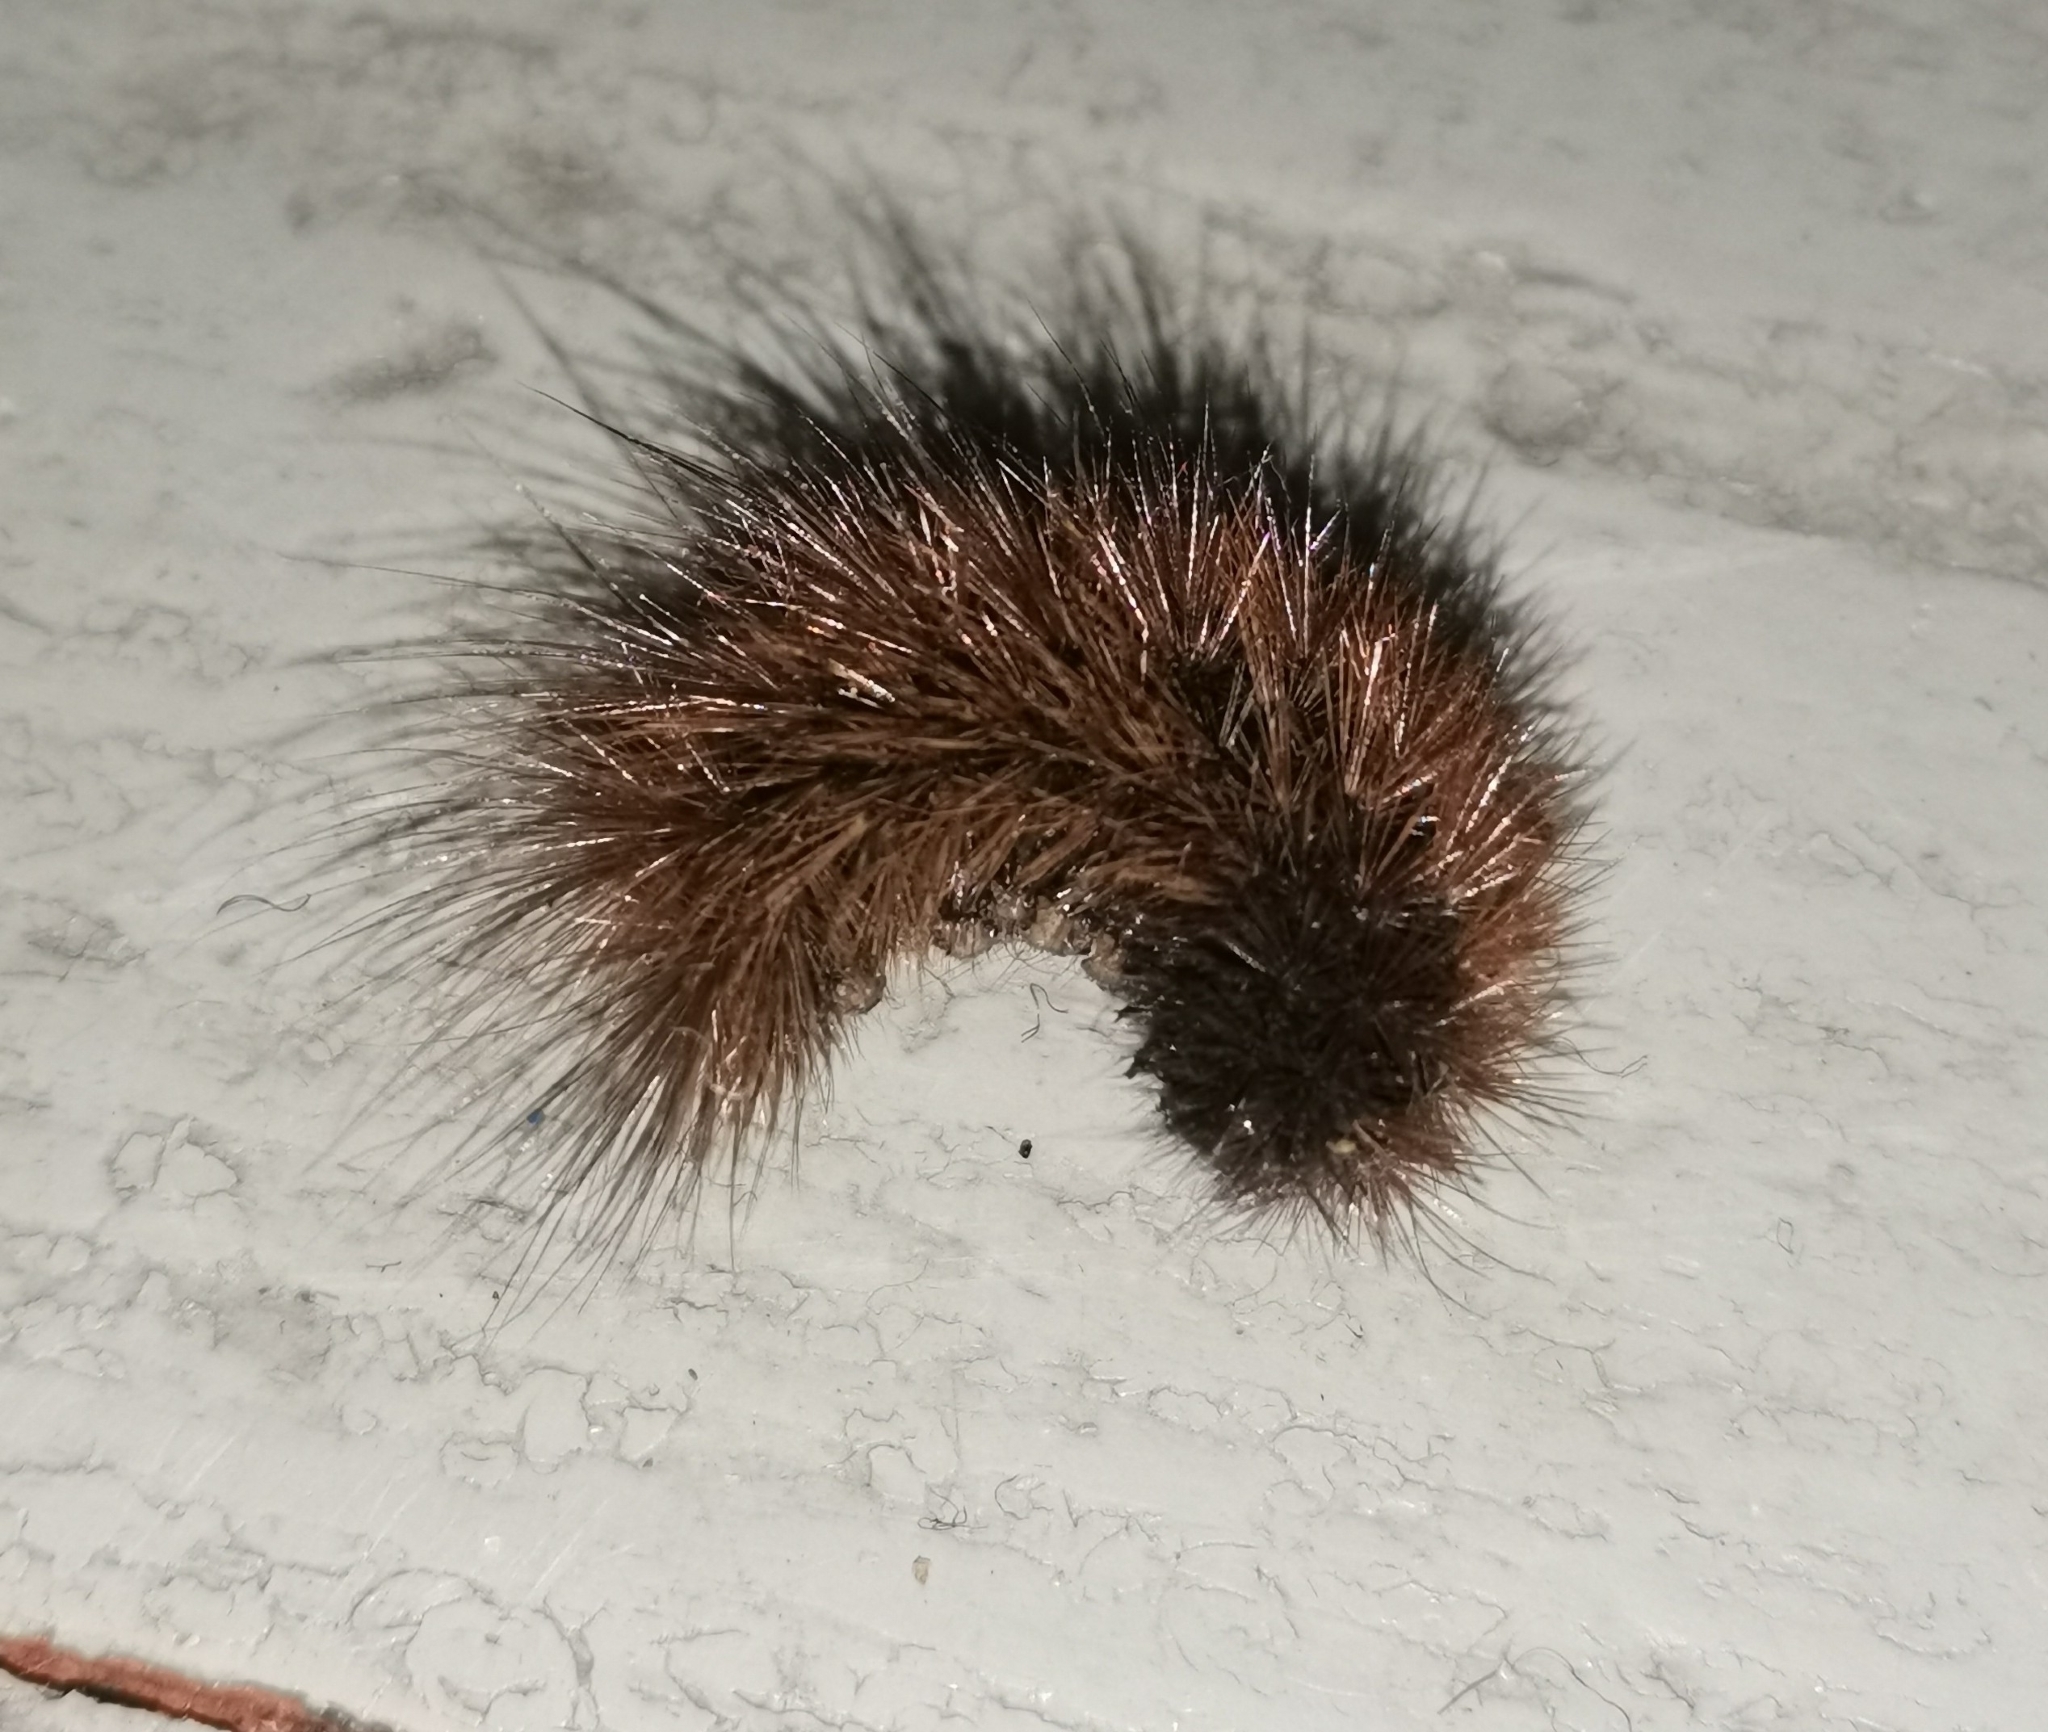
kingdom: Animalia
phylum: Arthropoda
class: Insecta
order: Lepidoptera
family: Erebidae
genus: Phragmatobia
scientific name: Phragmatobia fuliginosa
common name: Ruby tiger
